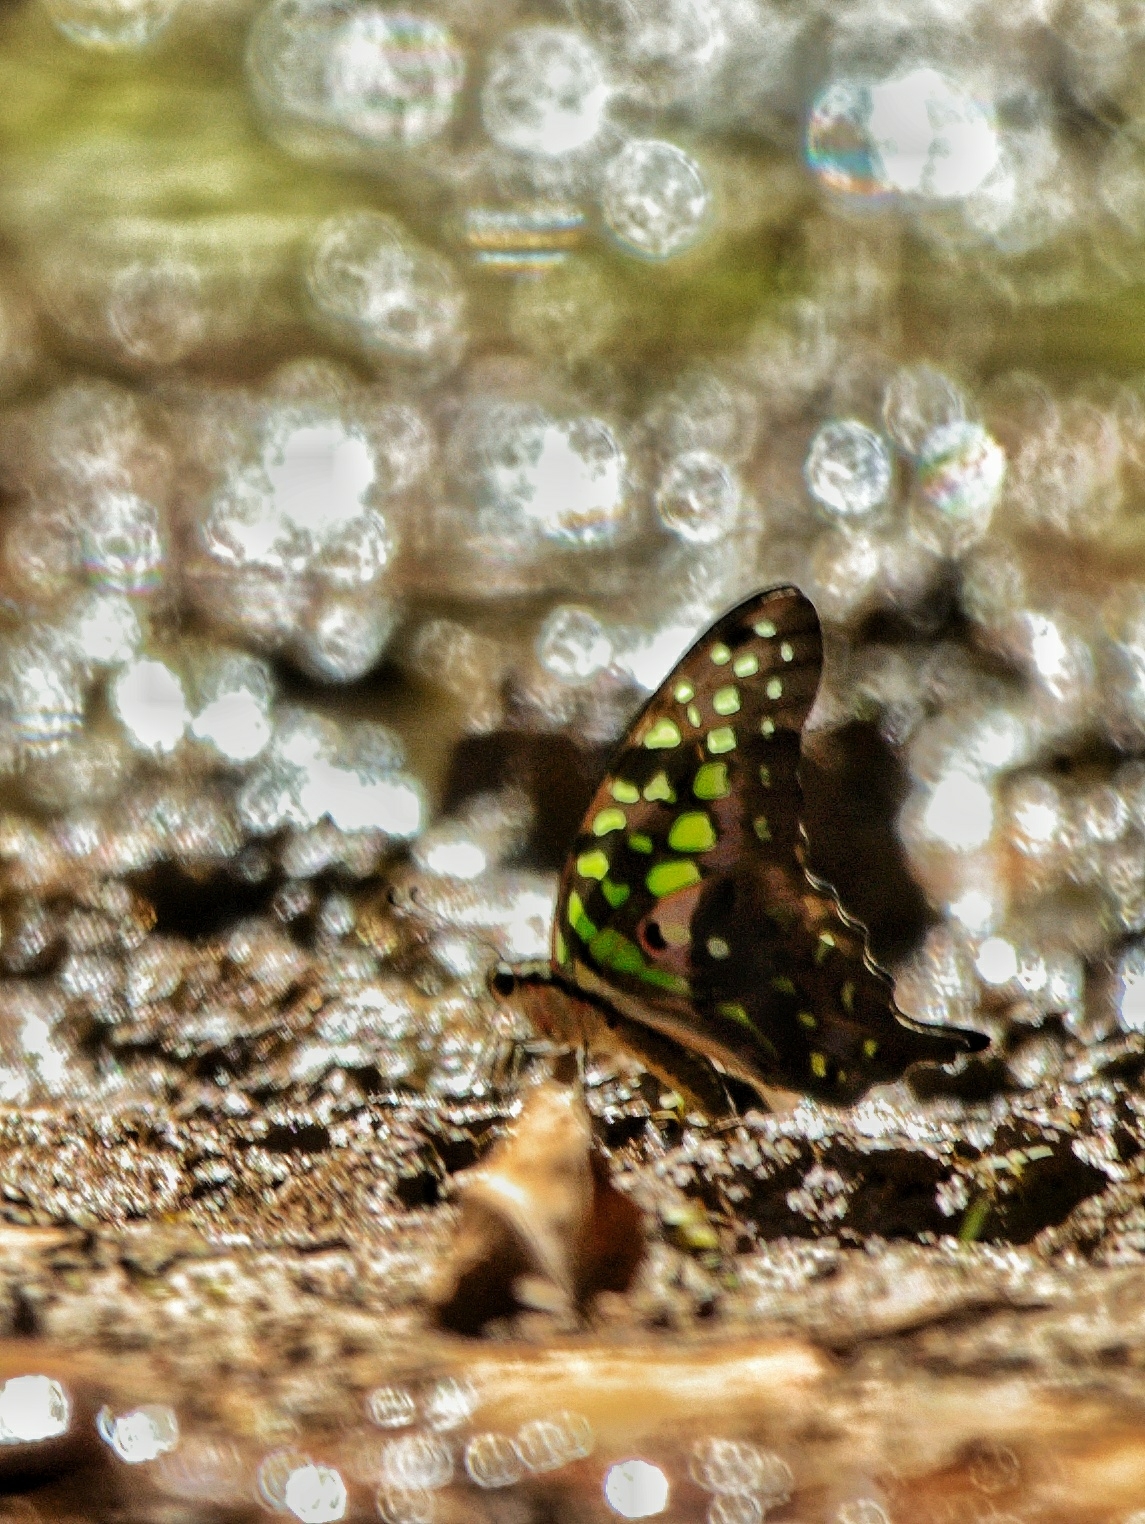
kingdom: Animalia
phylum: Arthropoda
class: Insecta
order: Lepidoptera
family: Papilionidae
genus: Graphium
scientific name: Graphium agamemnon
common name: Tailed jay
